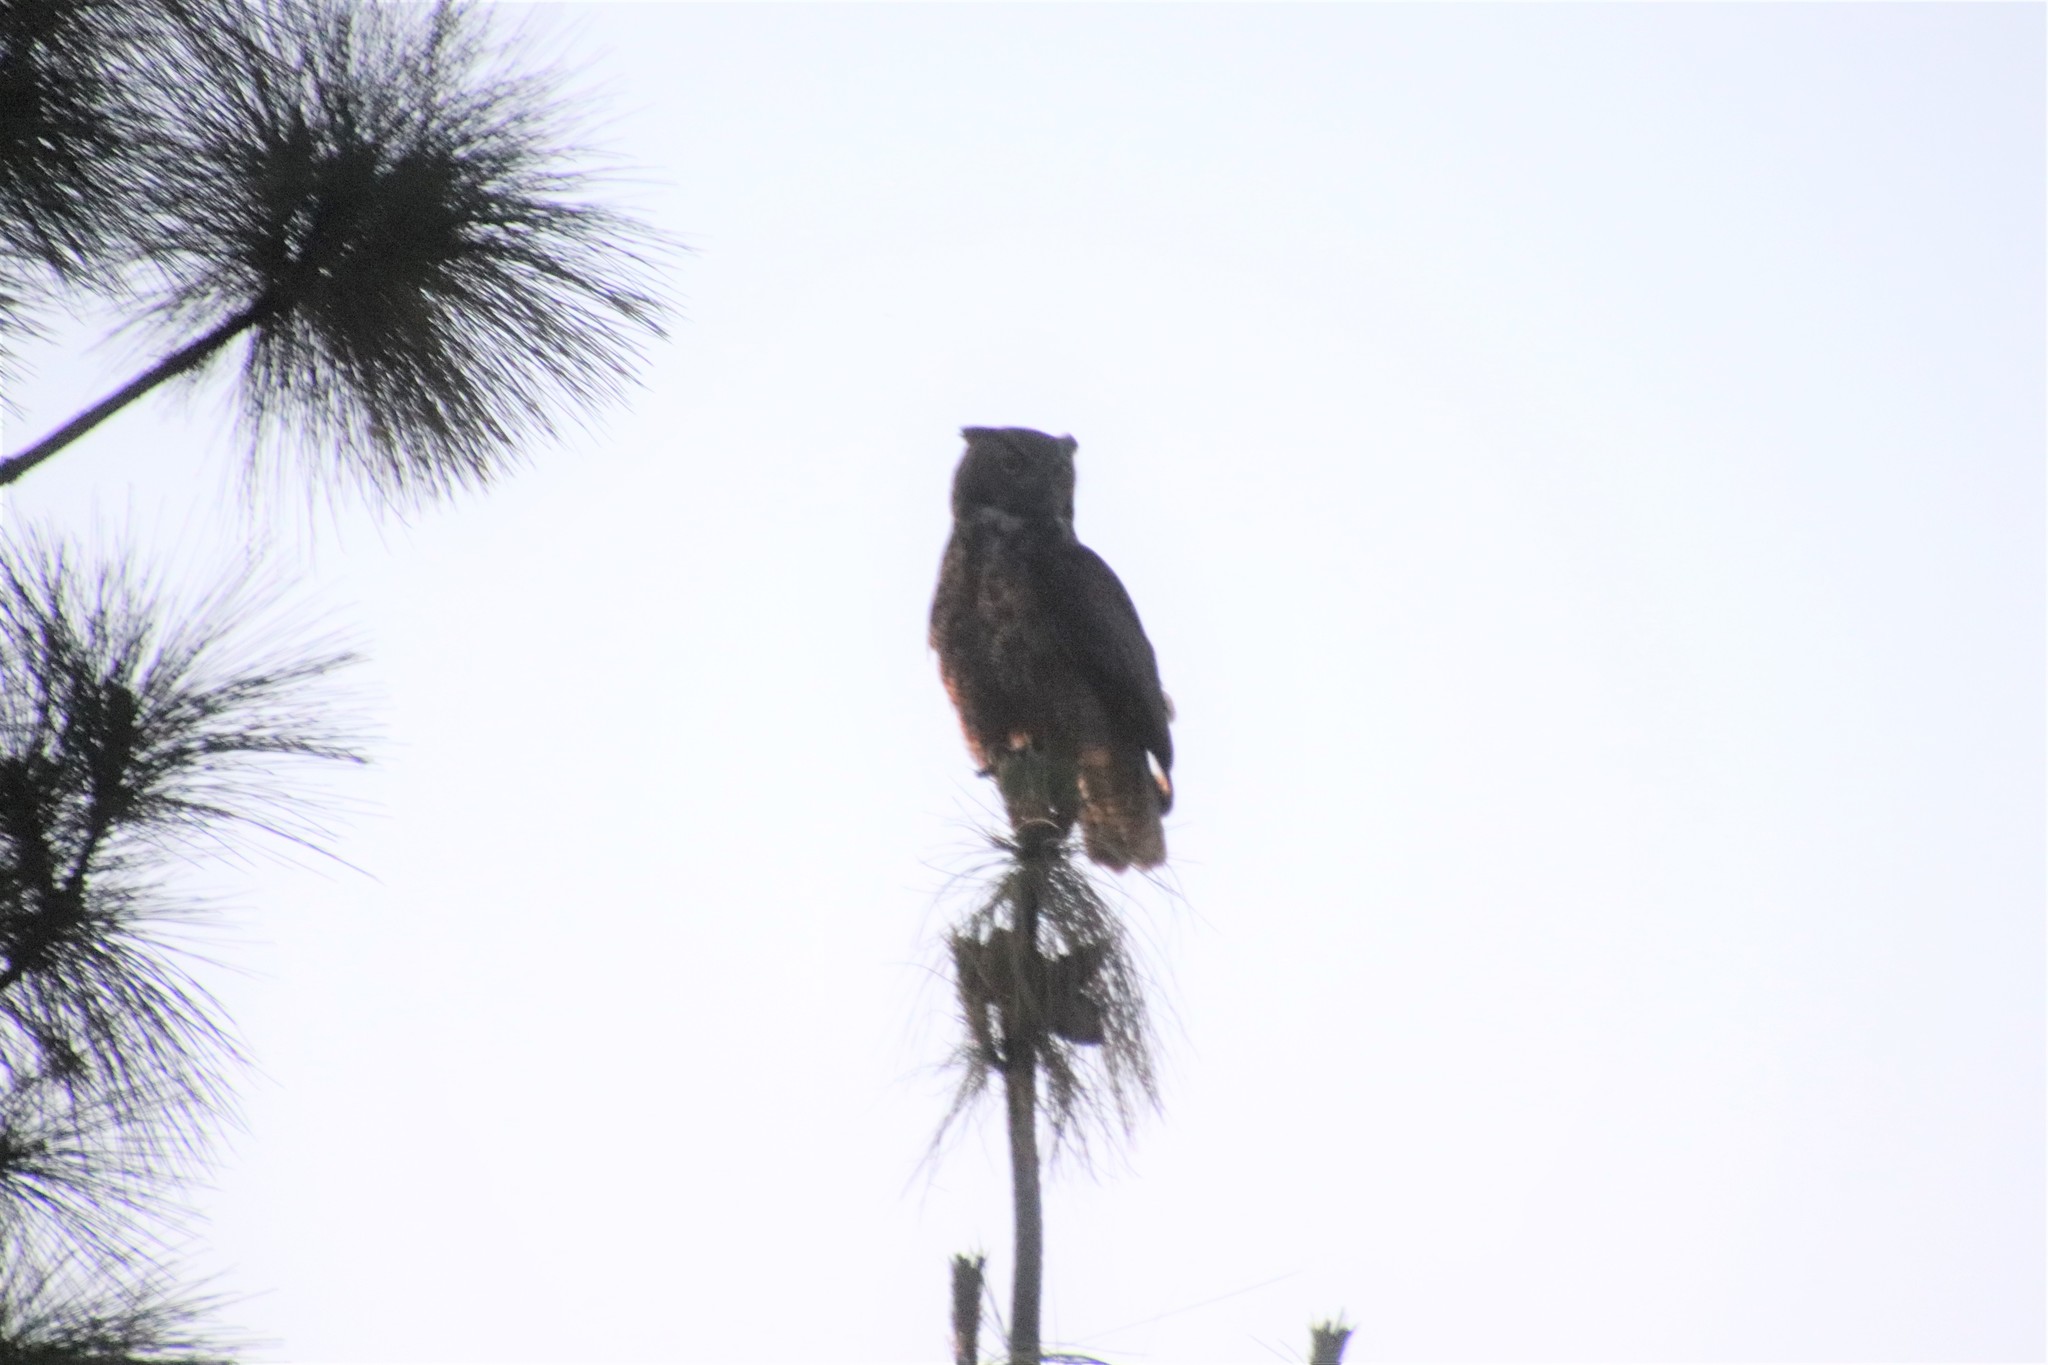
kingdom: Animalia
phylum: Chordata
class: Aves
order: Strigiformes
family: Strigidae
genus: Bubo
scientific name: Bubo virginianus
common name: Great horned owl
